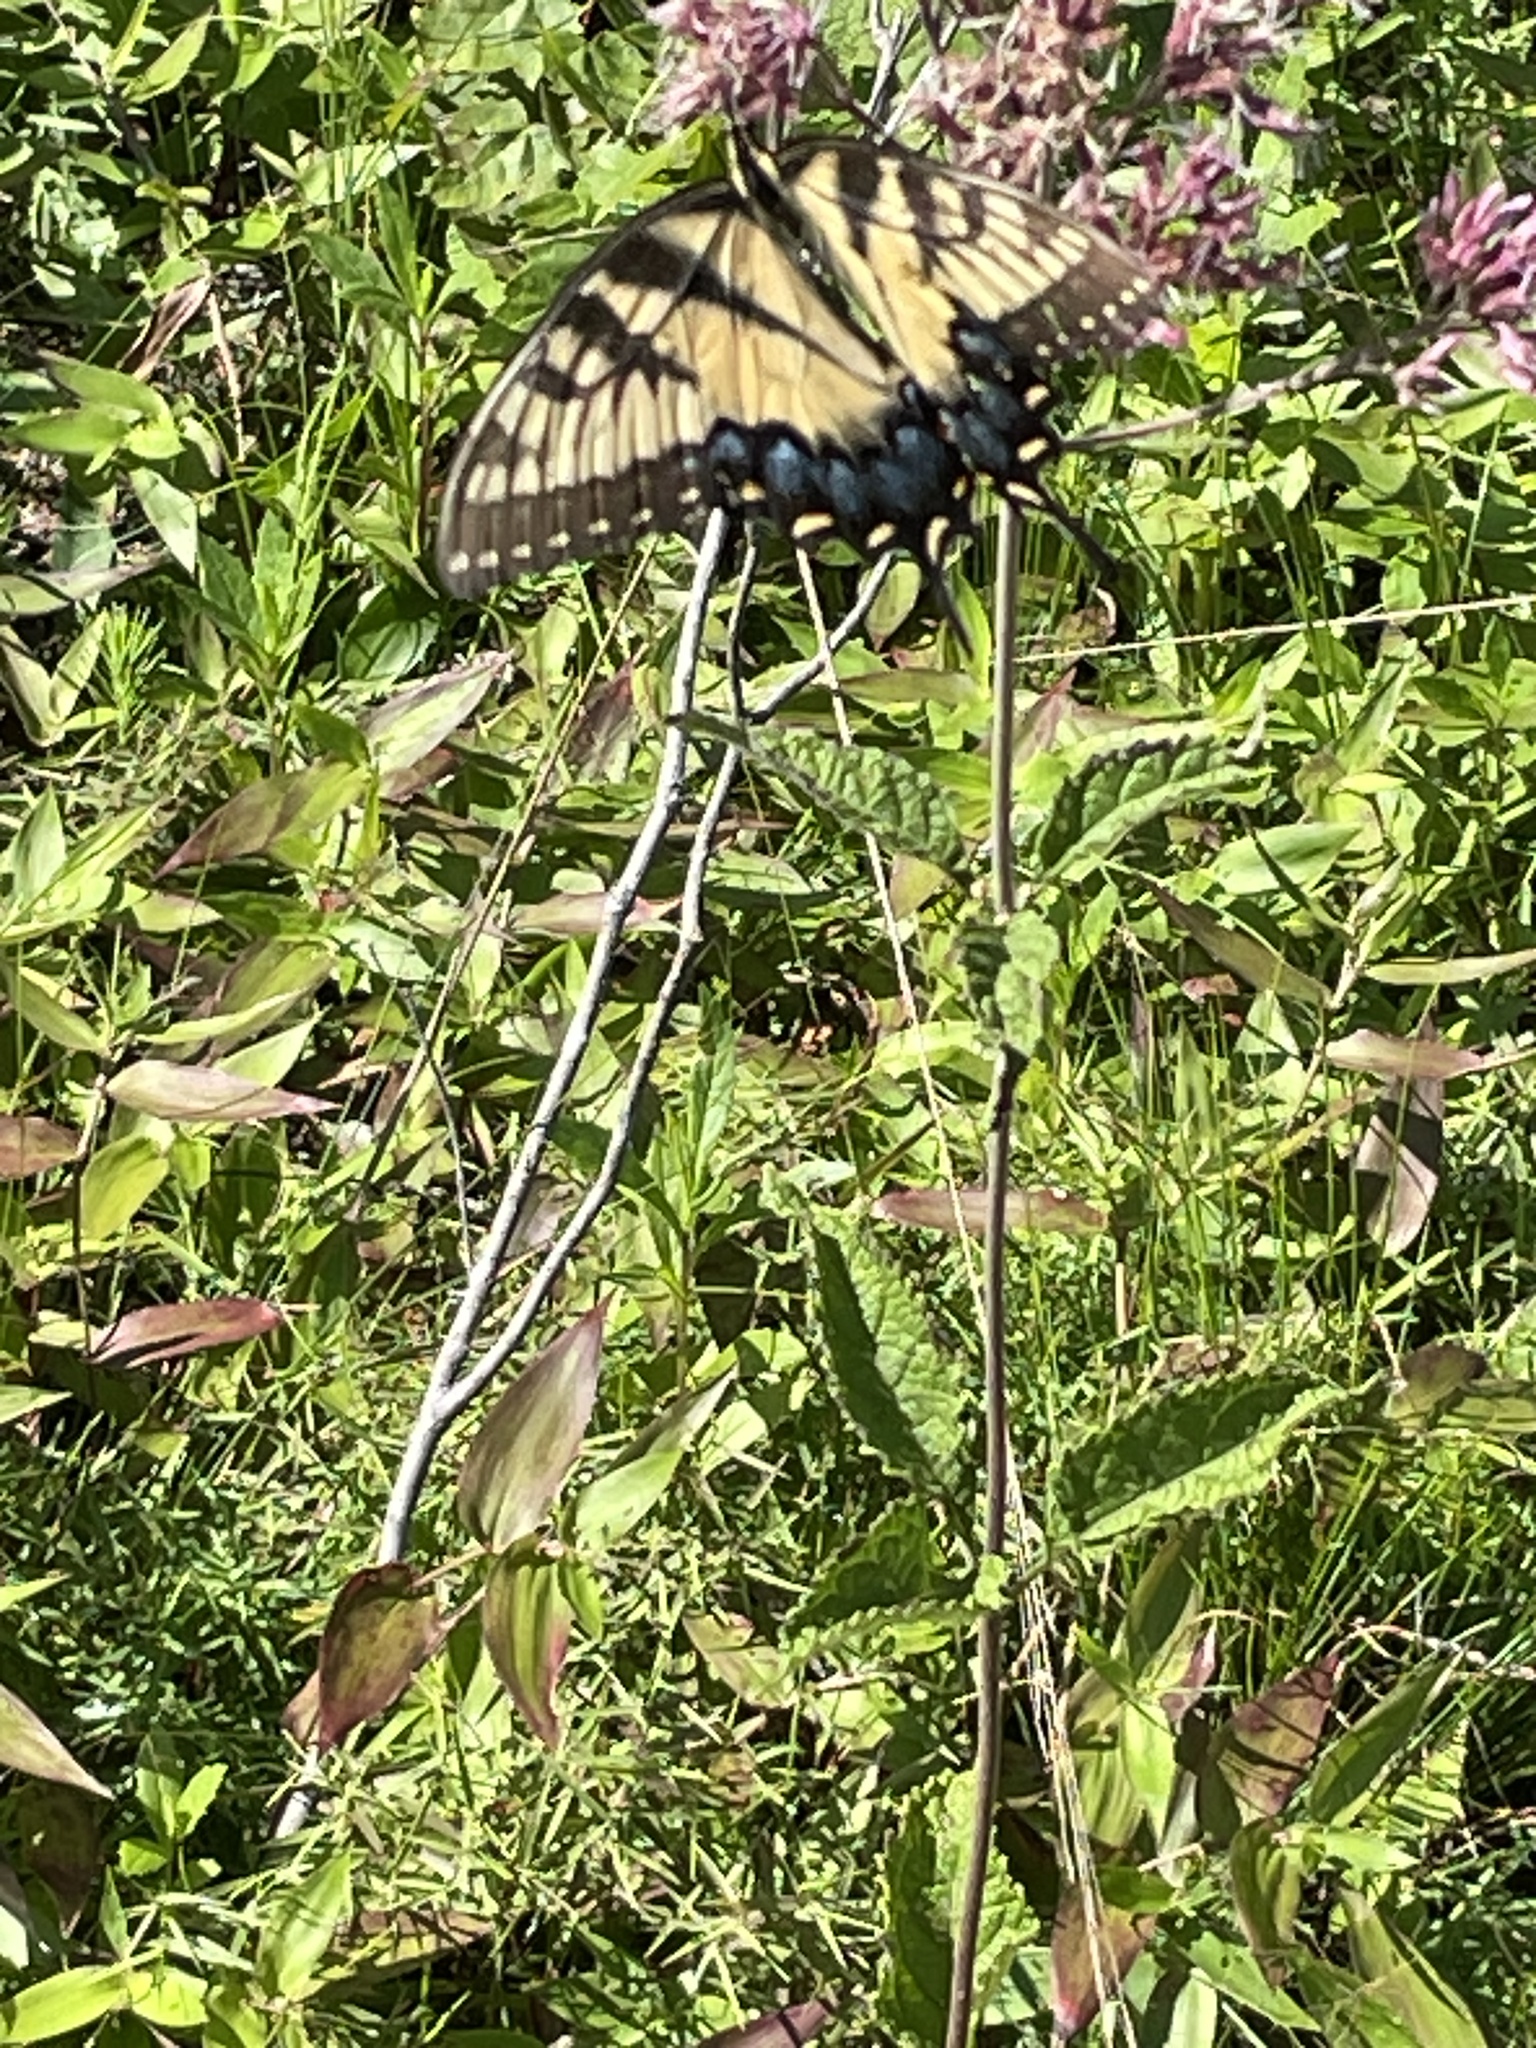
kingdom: Animalia
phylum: Arthropoda
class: Insecta
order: Lepidoptera
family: Papilionidae
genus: Papilio
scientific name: Papilio glaucus
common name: Tiger swallowtail
